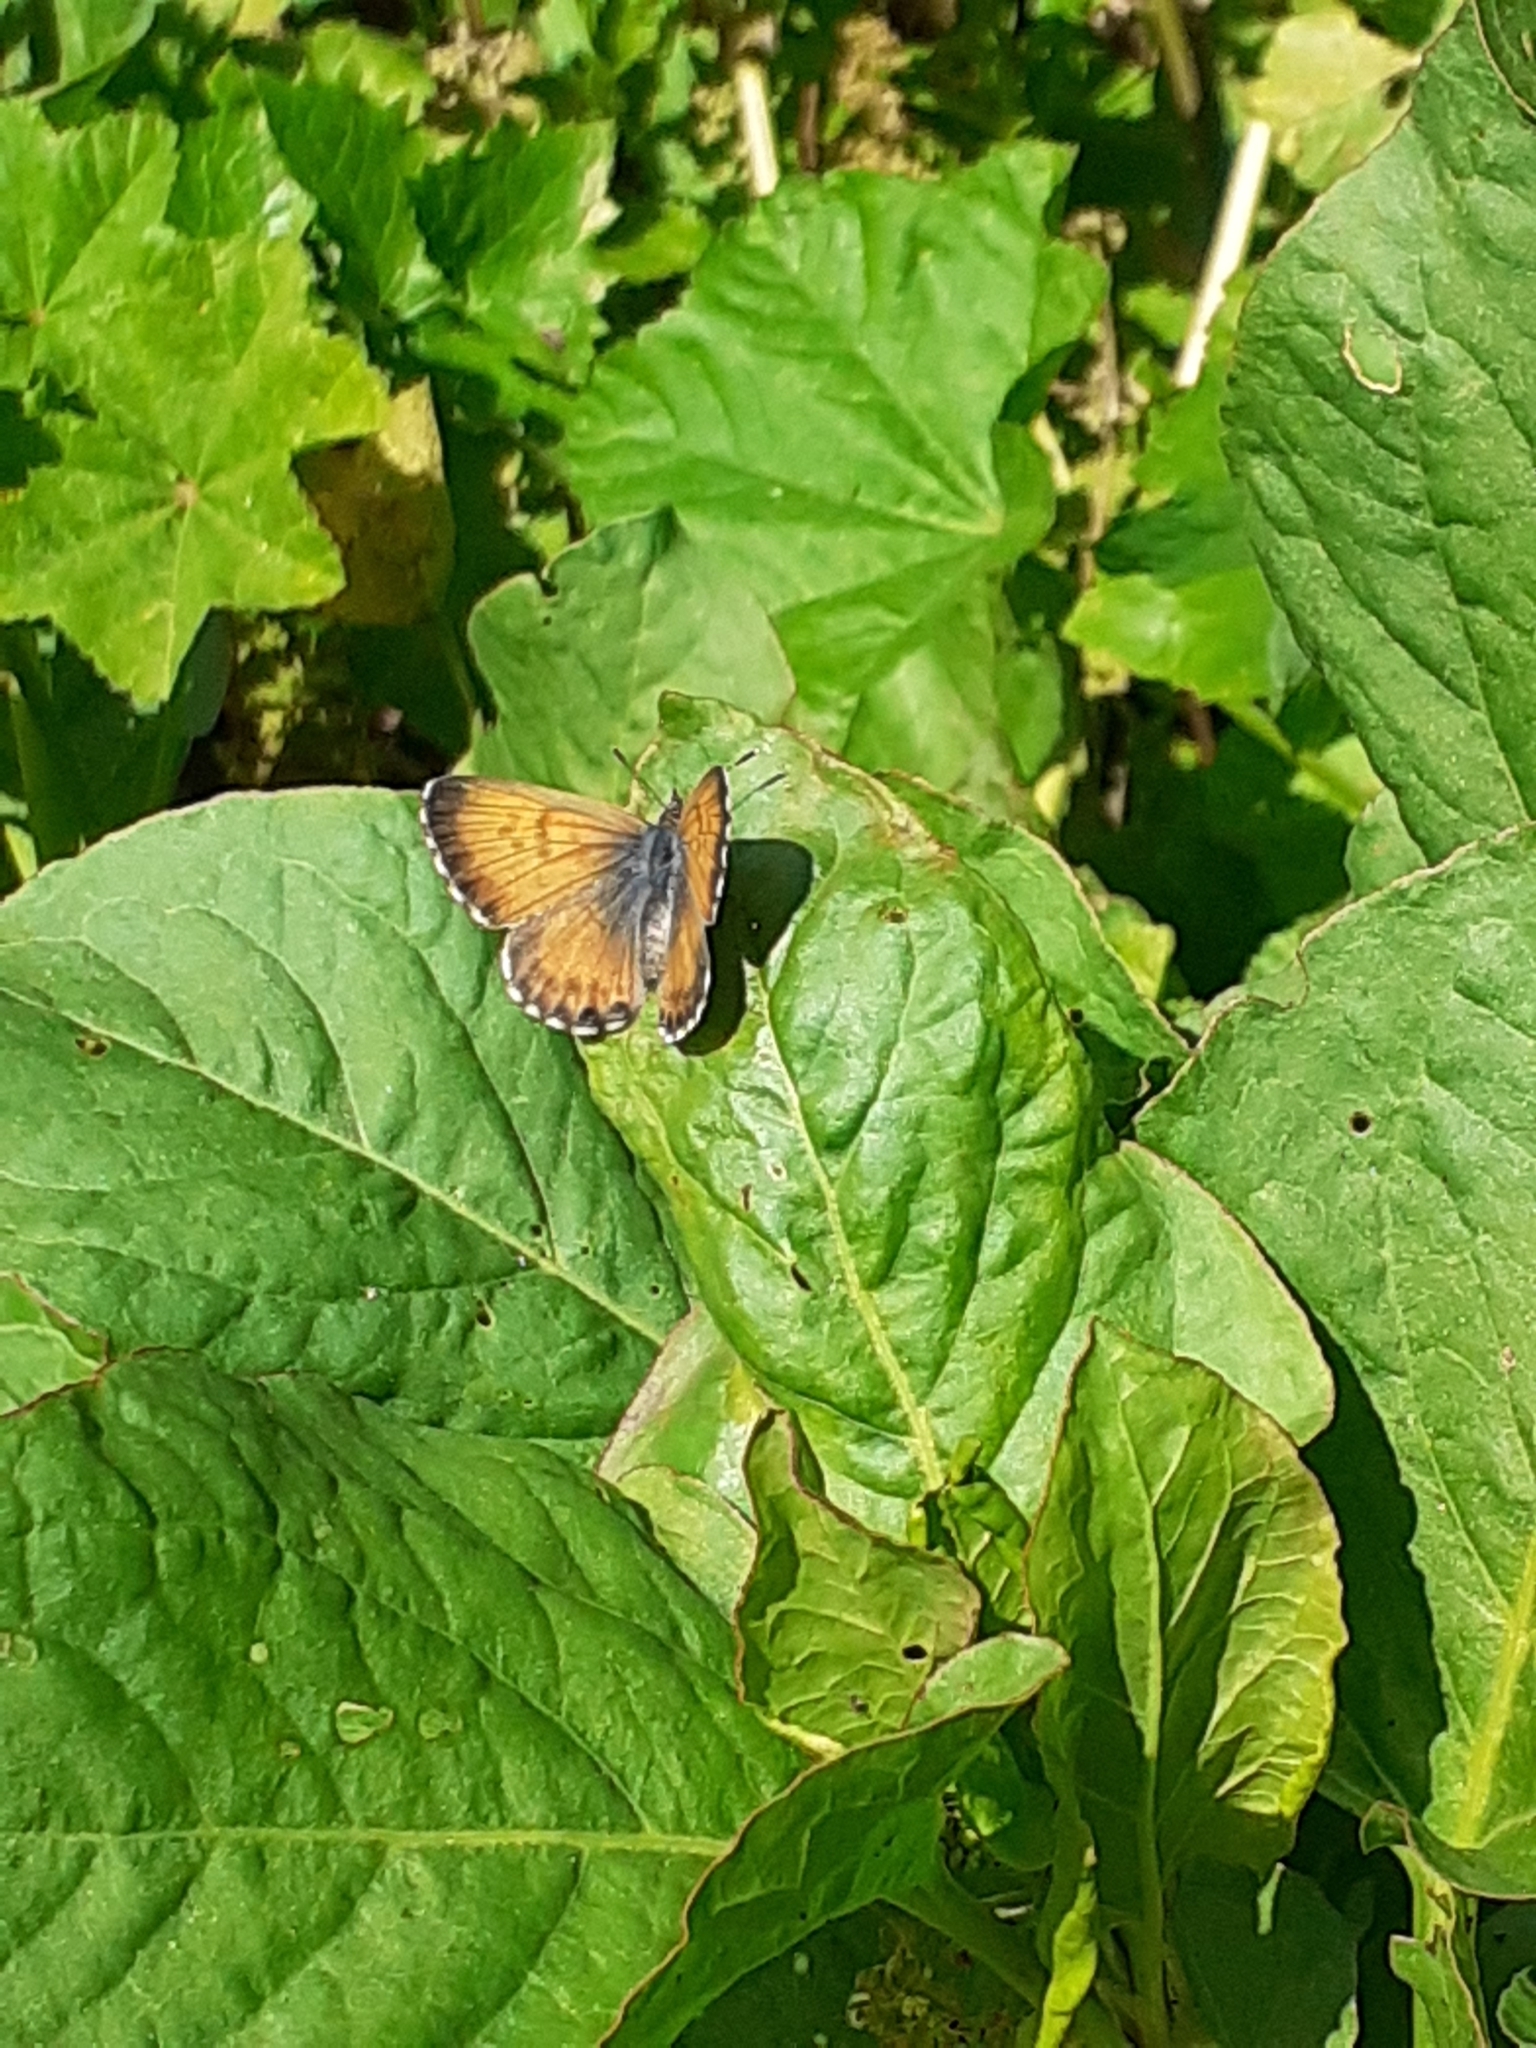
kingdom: Animalia
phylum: Arthropoda
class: Insecta
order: Lepidoptera
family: Lycaenidae
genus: Cyclyrius
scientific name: Cyclyrius webbianus
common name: Canary blue
